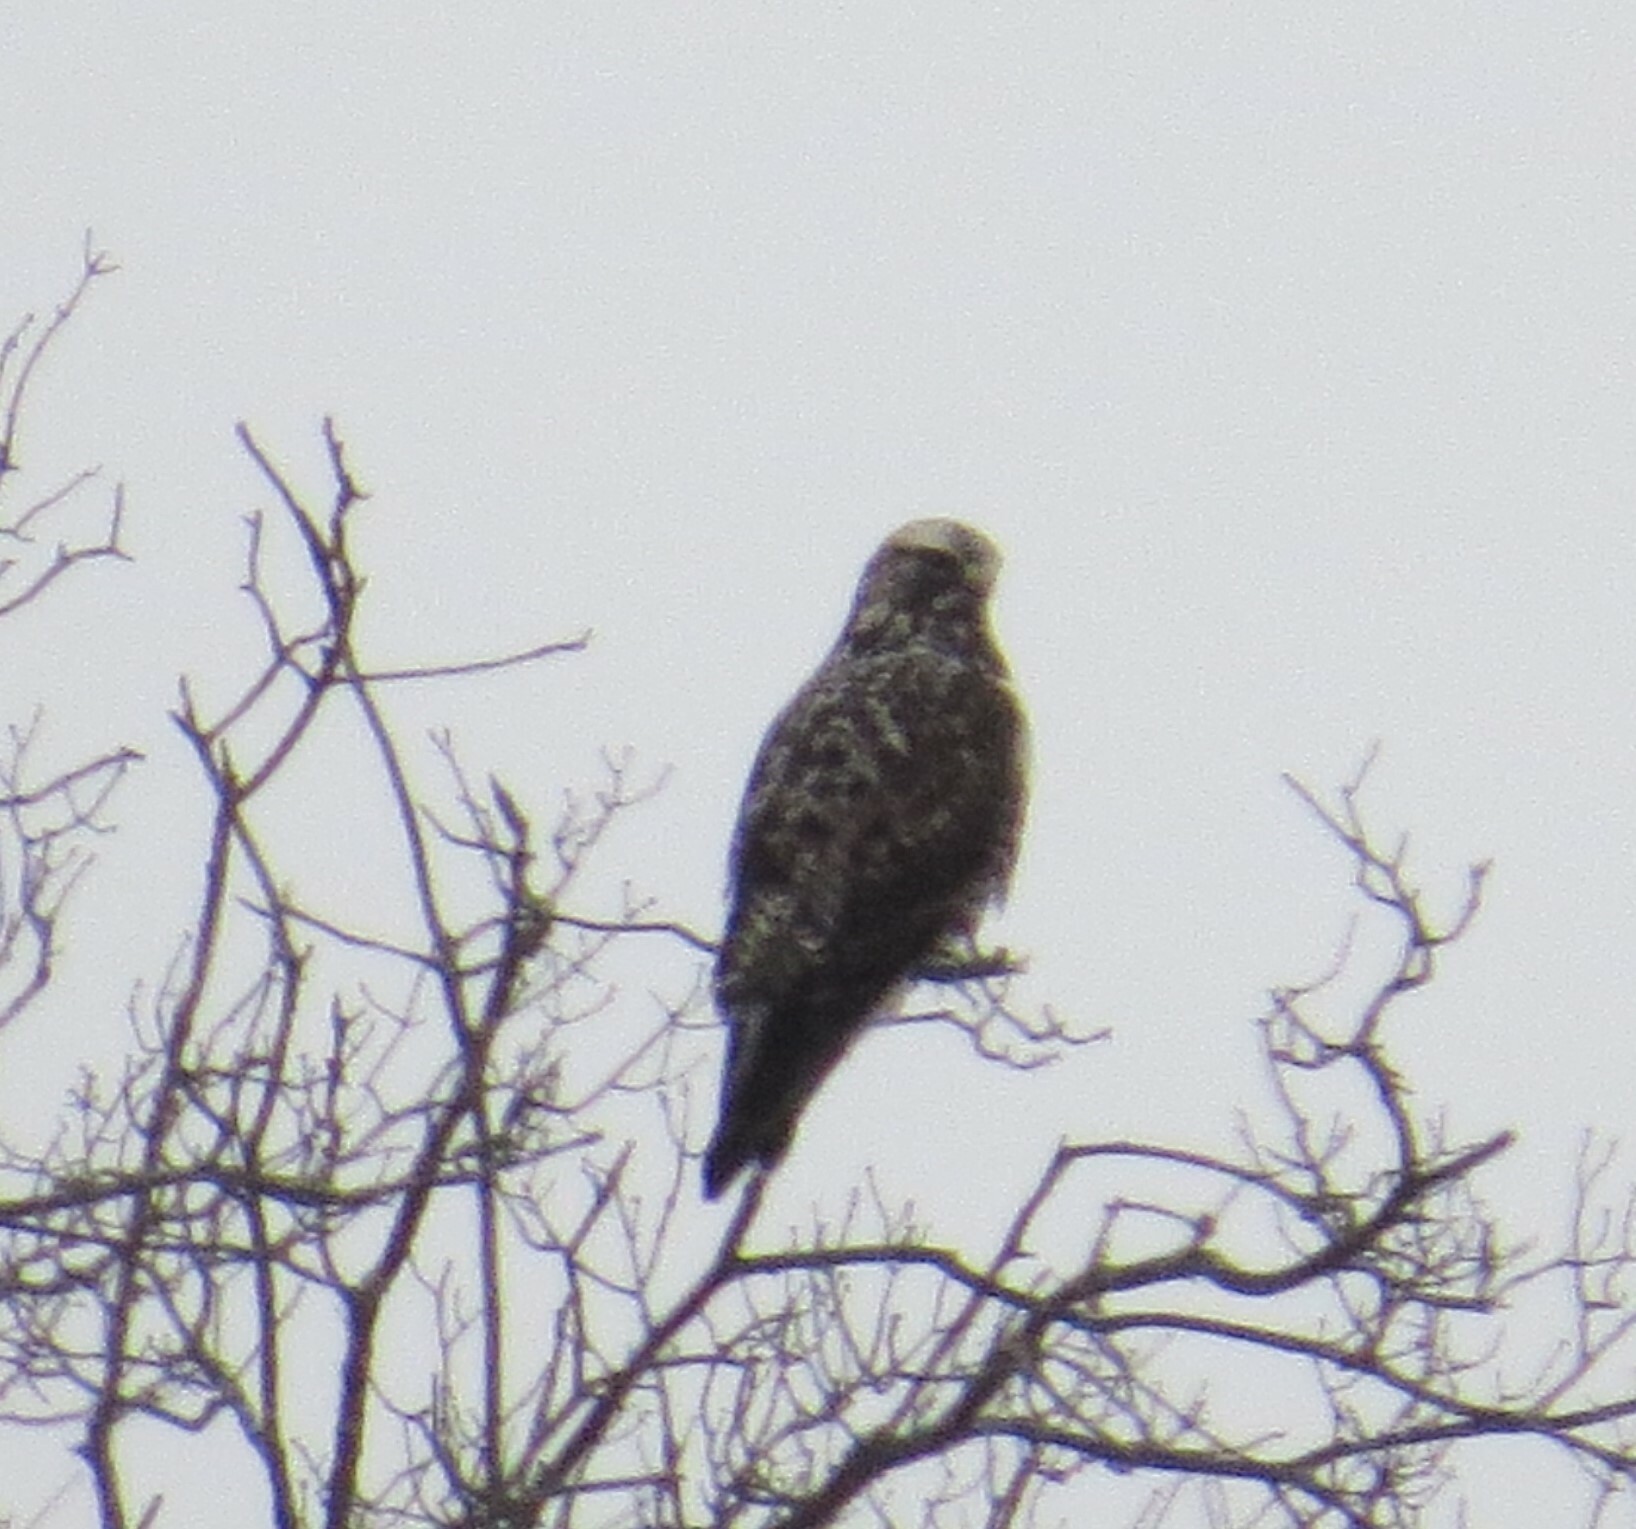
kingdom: Animalia
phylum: Chordata
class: Aves
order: Accipitriformes
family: Accipitridae
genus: Buteo
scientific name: Buteo lagopus
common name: Rough-legged buzzard
